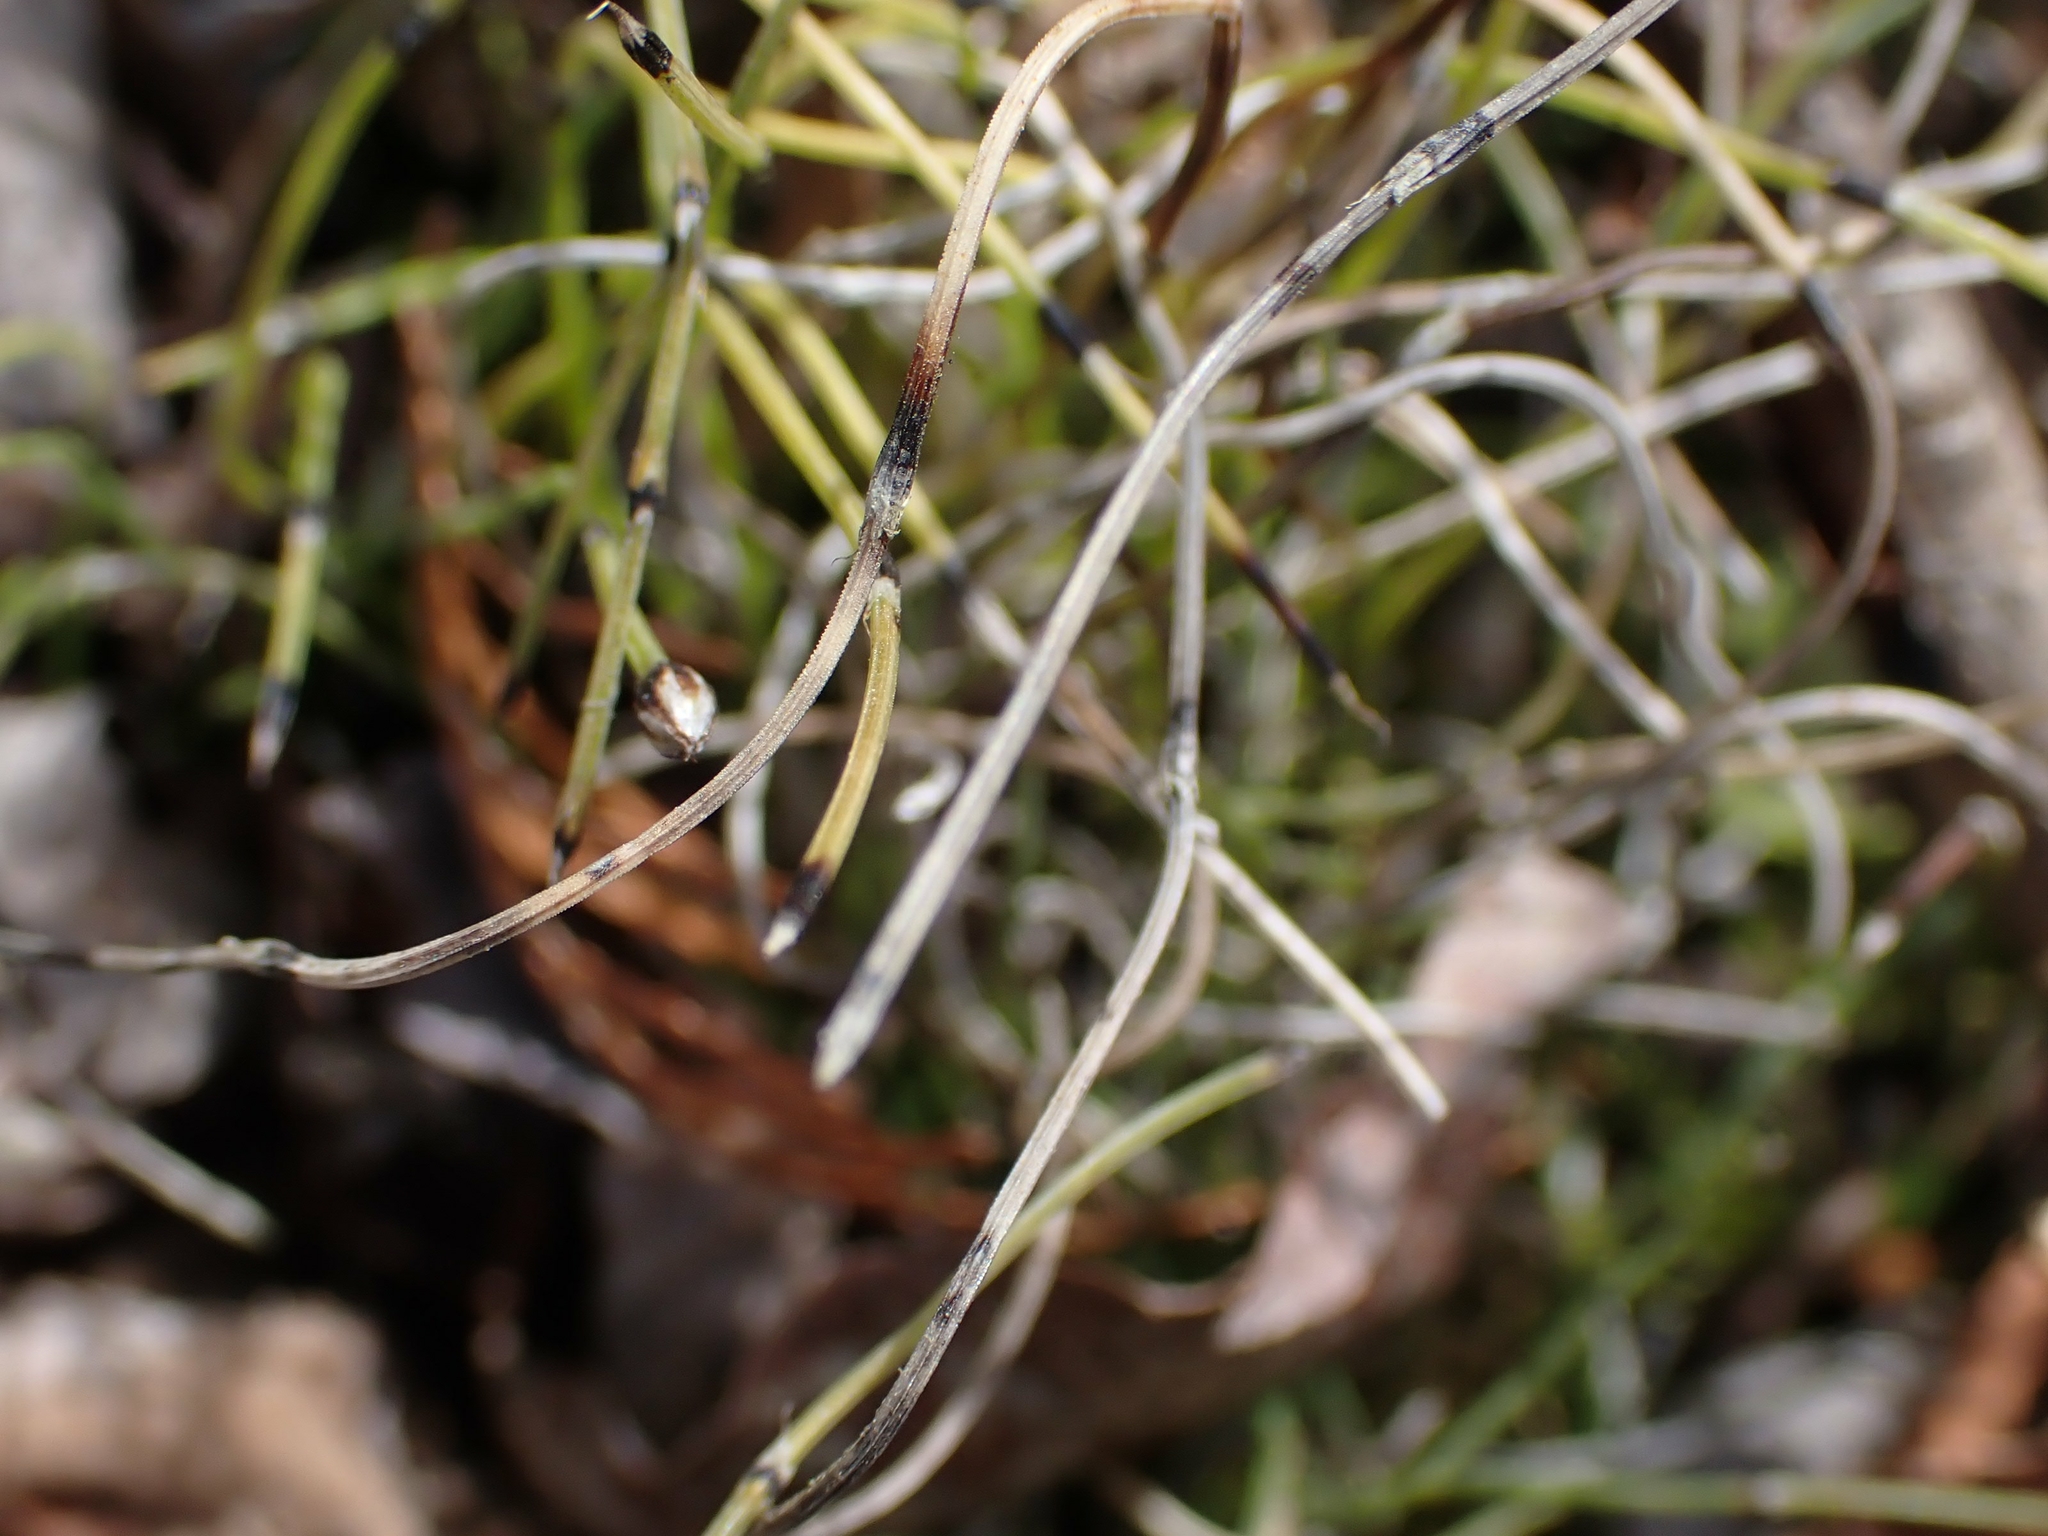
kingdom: Plantae
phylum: Tracheophyta
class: Polypodiopsida
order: Equisetales
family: Equisetaceae
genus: Equisetum
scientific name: Equisetum scirpoides
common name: Delicate horsetail
